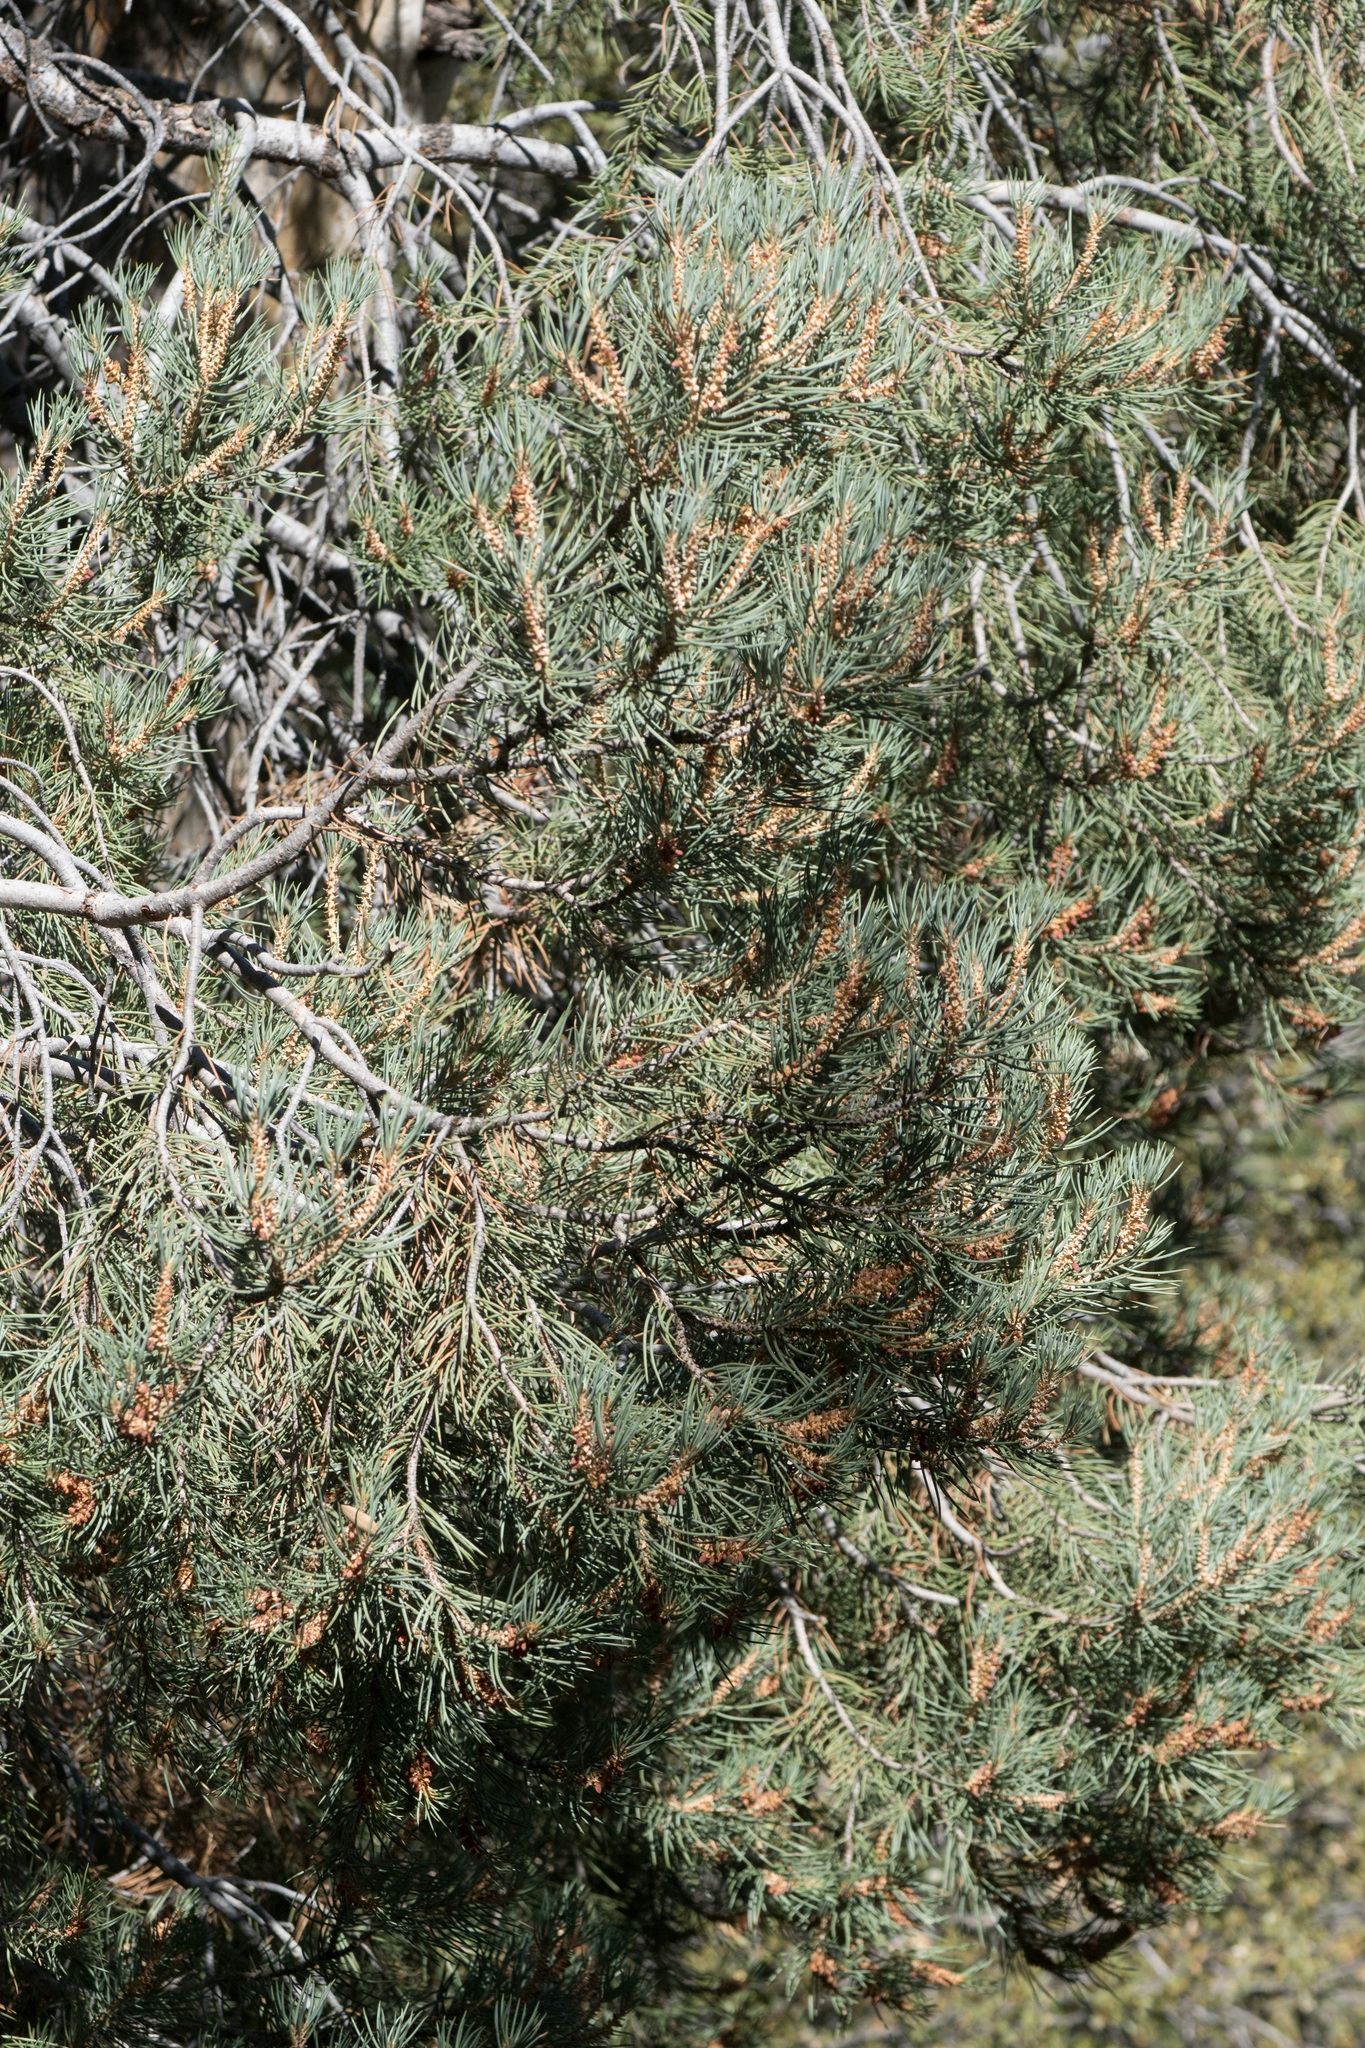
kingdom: Plantae
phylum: Tracheophyta
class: Pinopsida
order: Pinales
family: Pinaceae
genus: Pinus
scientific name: Pinus monophylla
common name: One-leaved nut pine
